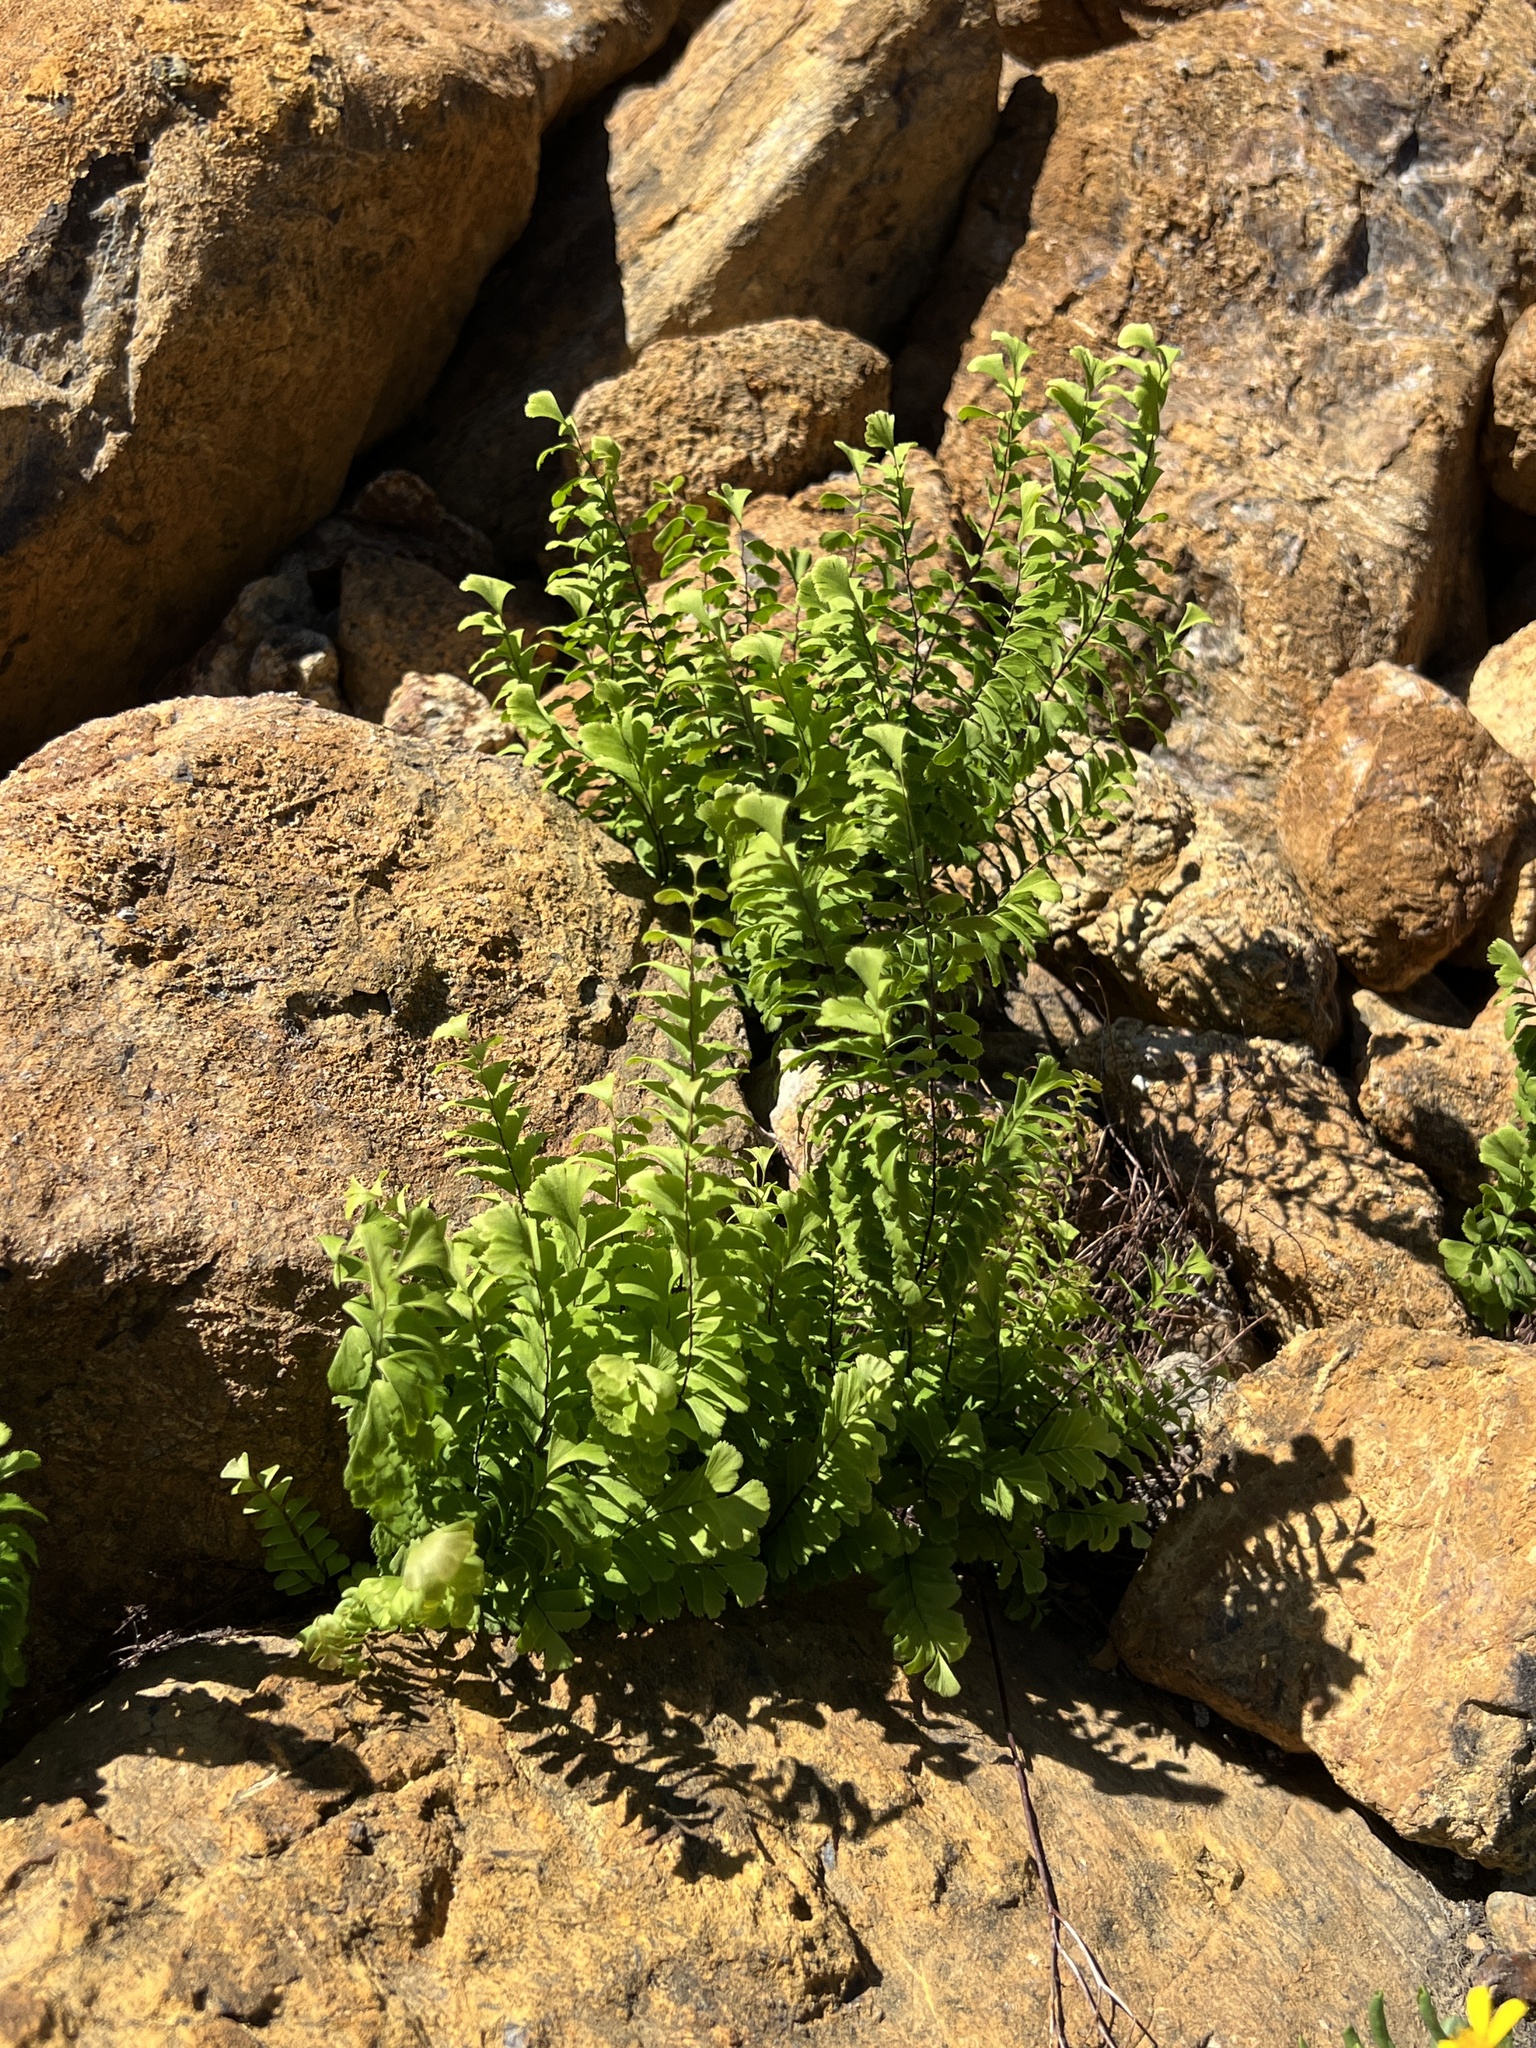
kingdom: Plantae
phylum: Tracheophyta
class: Polypodiopsida
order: Polypodiales
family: Pteridaceae
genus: Adiantum
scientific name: Adiantum aleuticum
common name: Aleutian maidenhair fern
